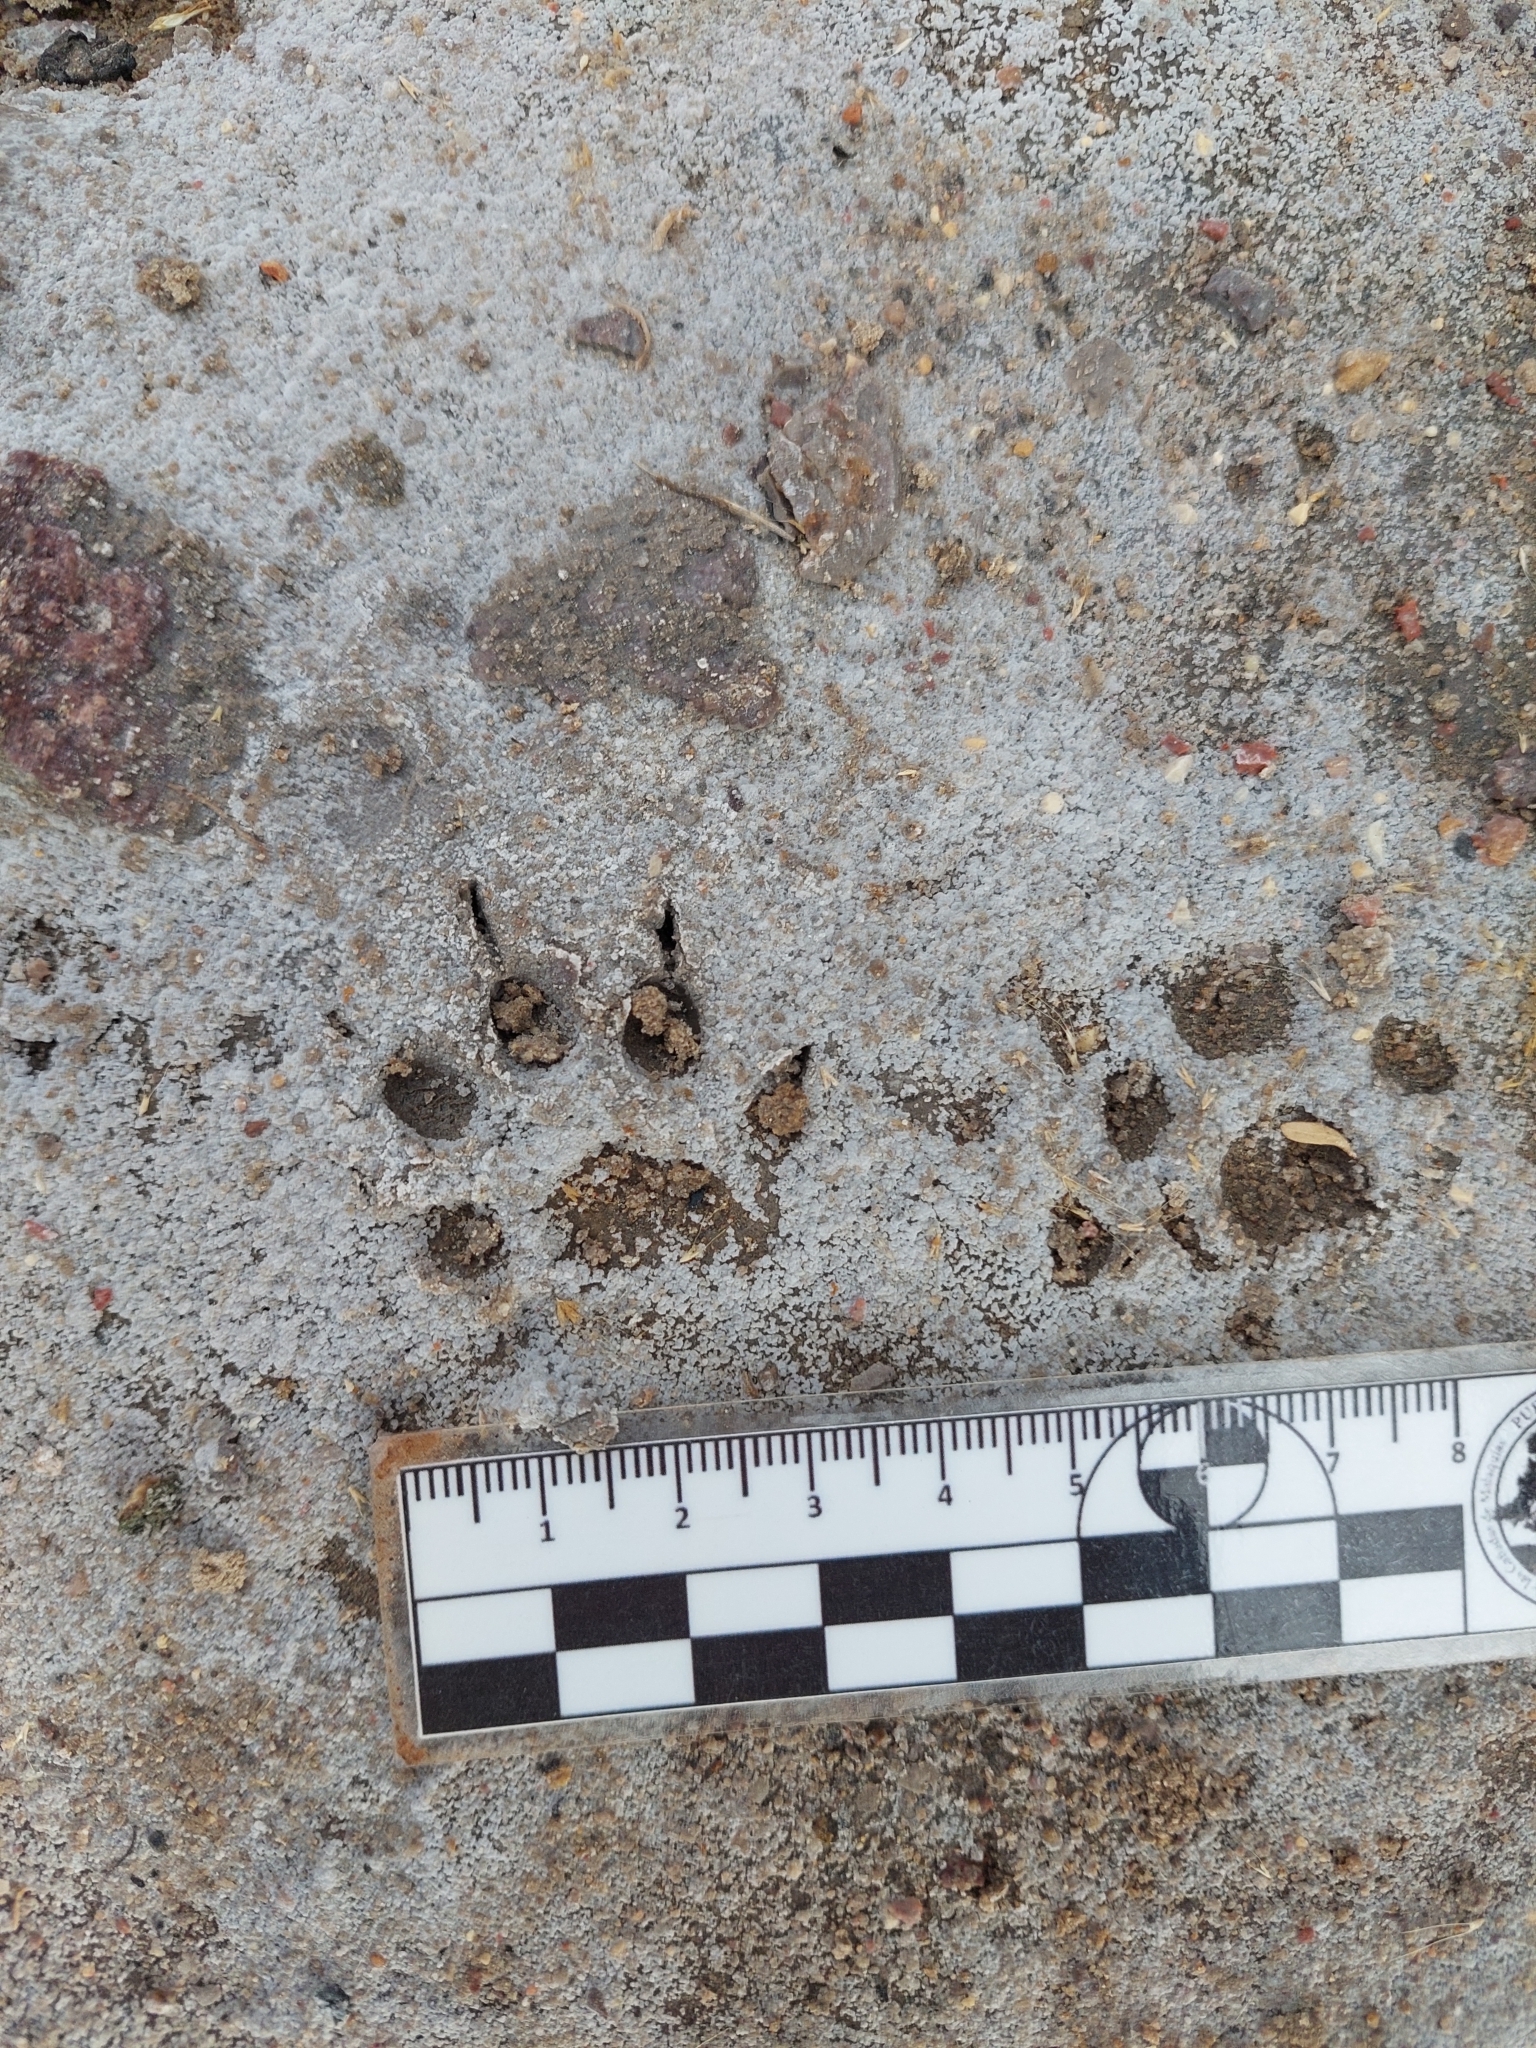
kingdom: Animalia
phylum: Chordata
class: Mammalia
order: Carnivora
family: Mustelidae
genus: Galictis
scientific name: Galictis cuja
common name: Lesser grison
